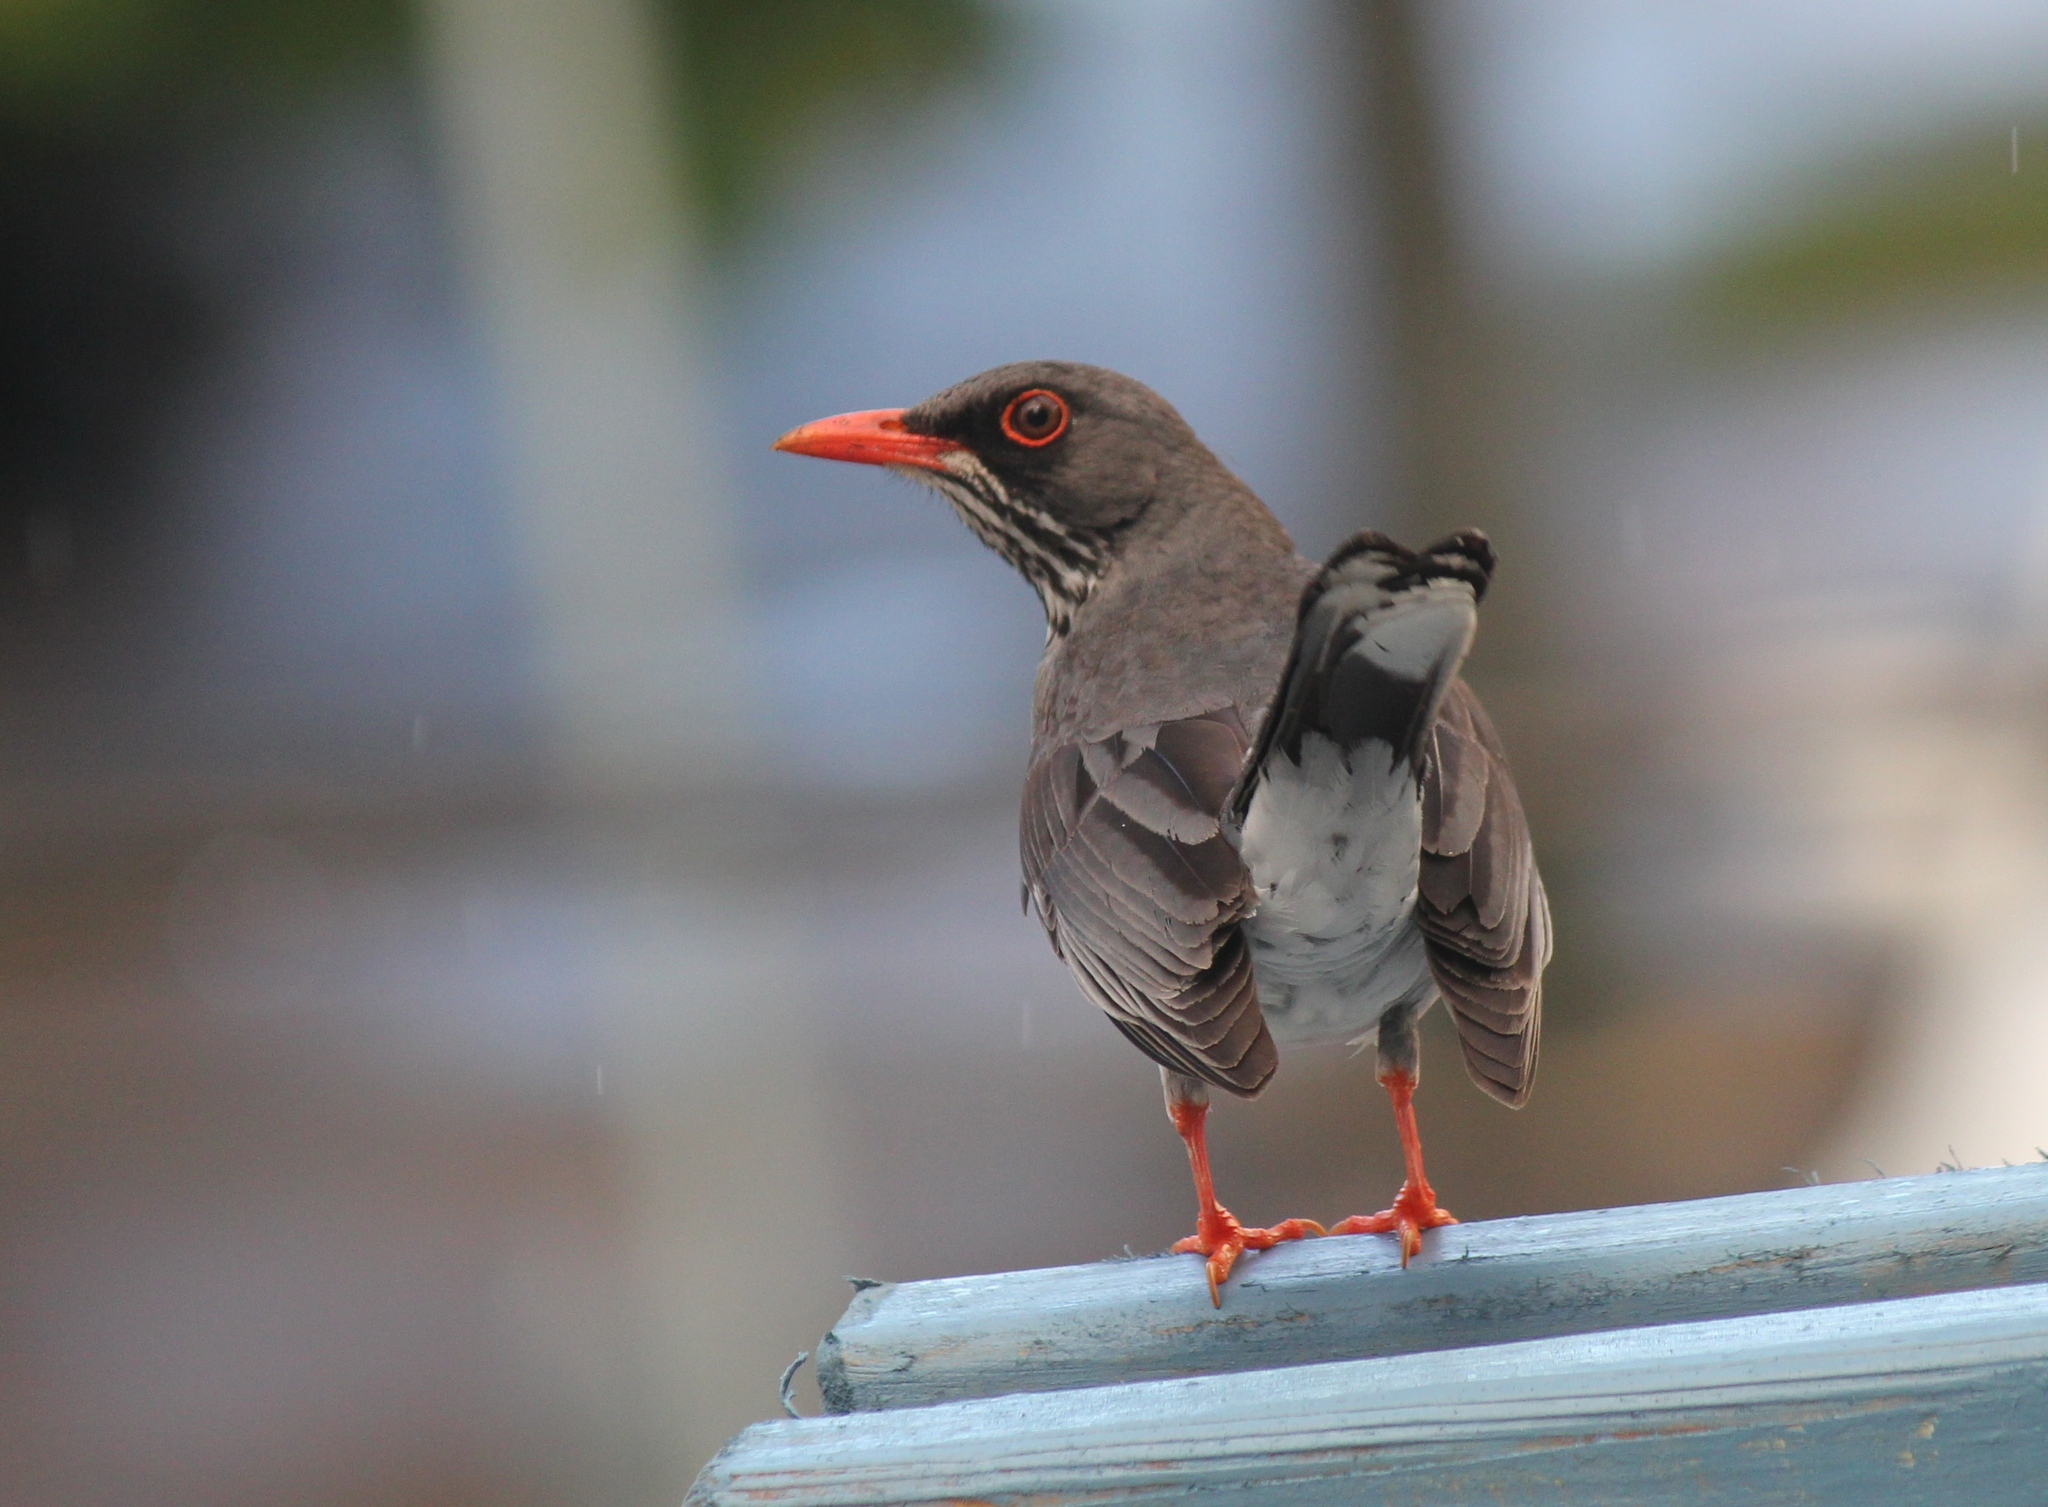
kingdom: Animalia
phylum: Chordata
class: Aves
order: Passeriformes
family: Turdidae
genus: Turdus
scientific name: Turdus plumbeus
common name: Red-legged thrush
